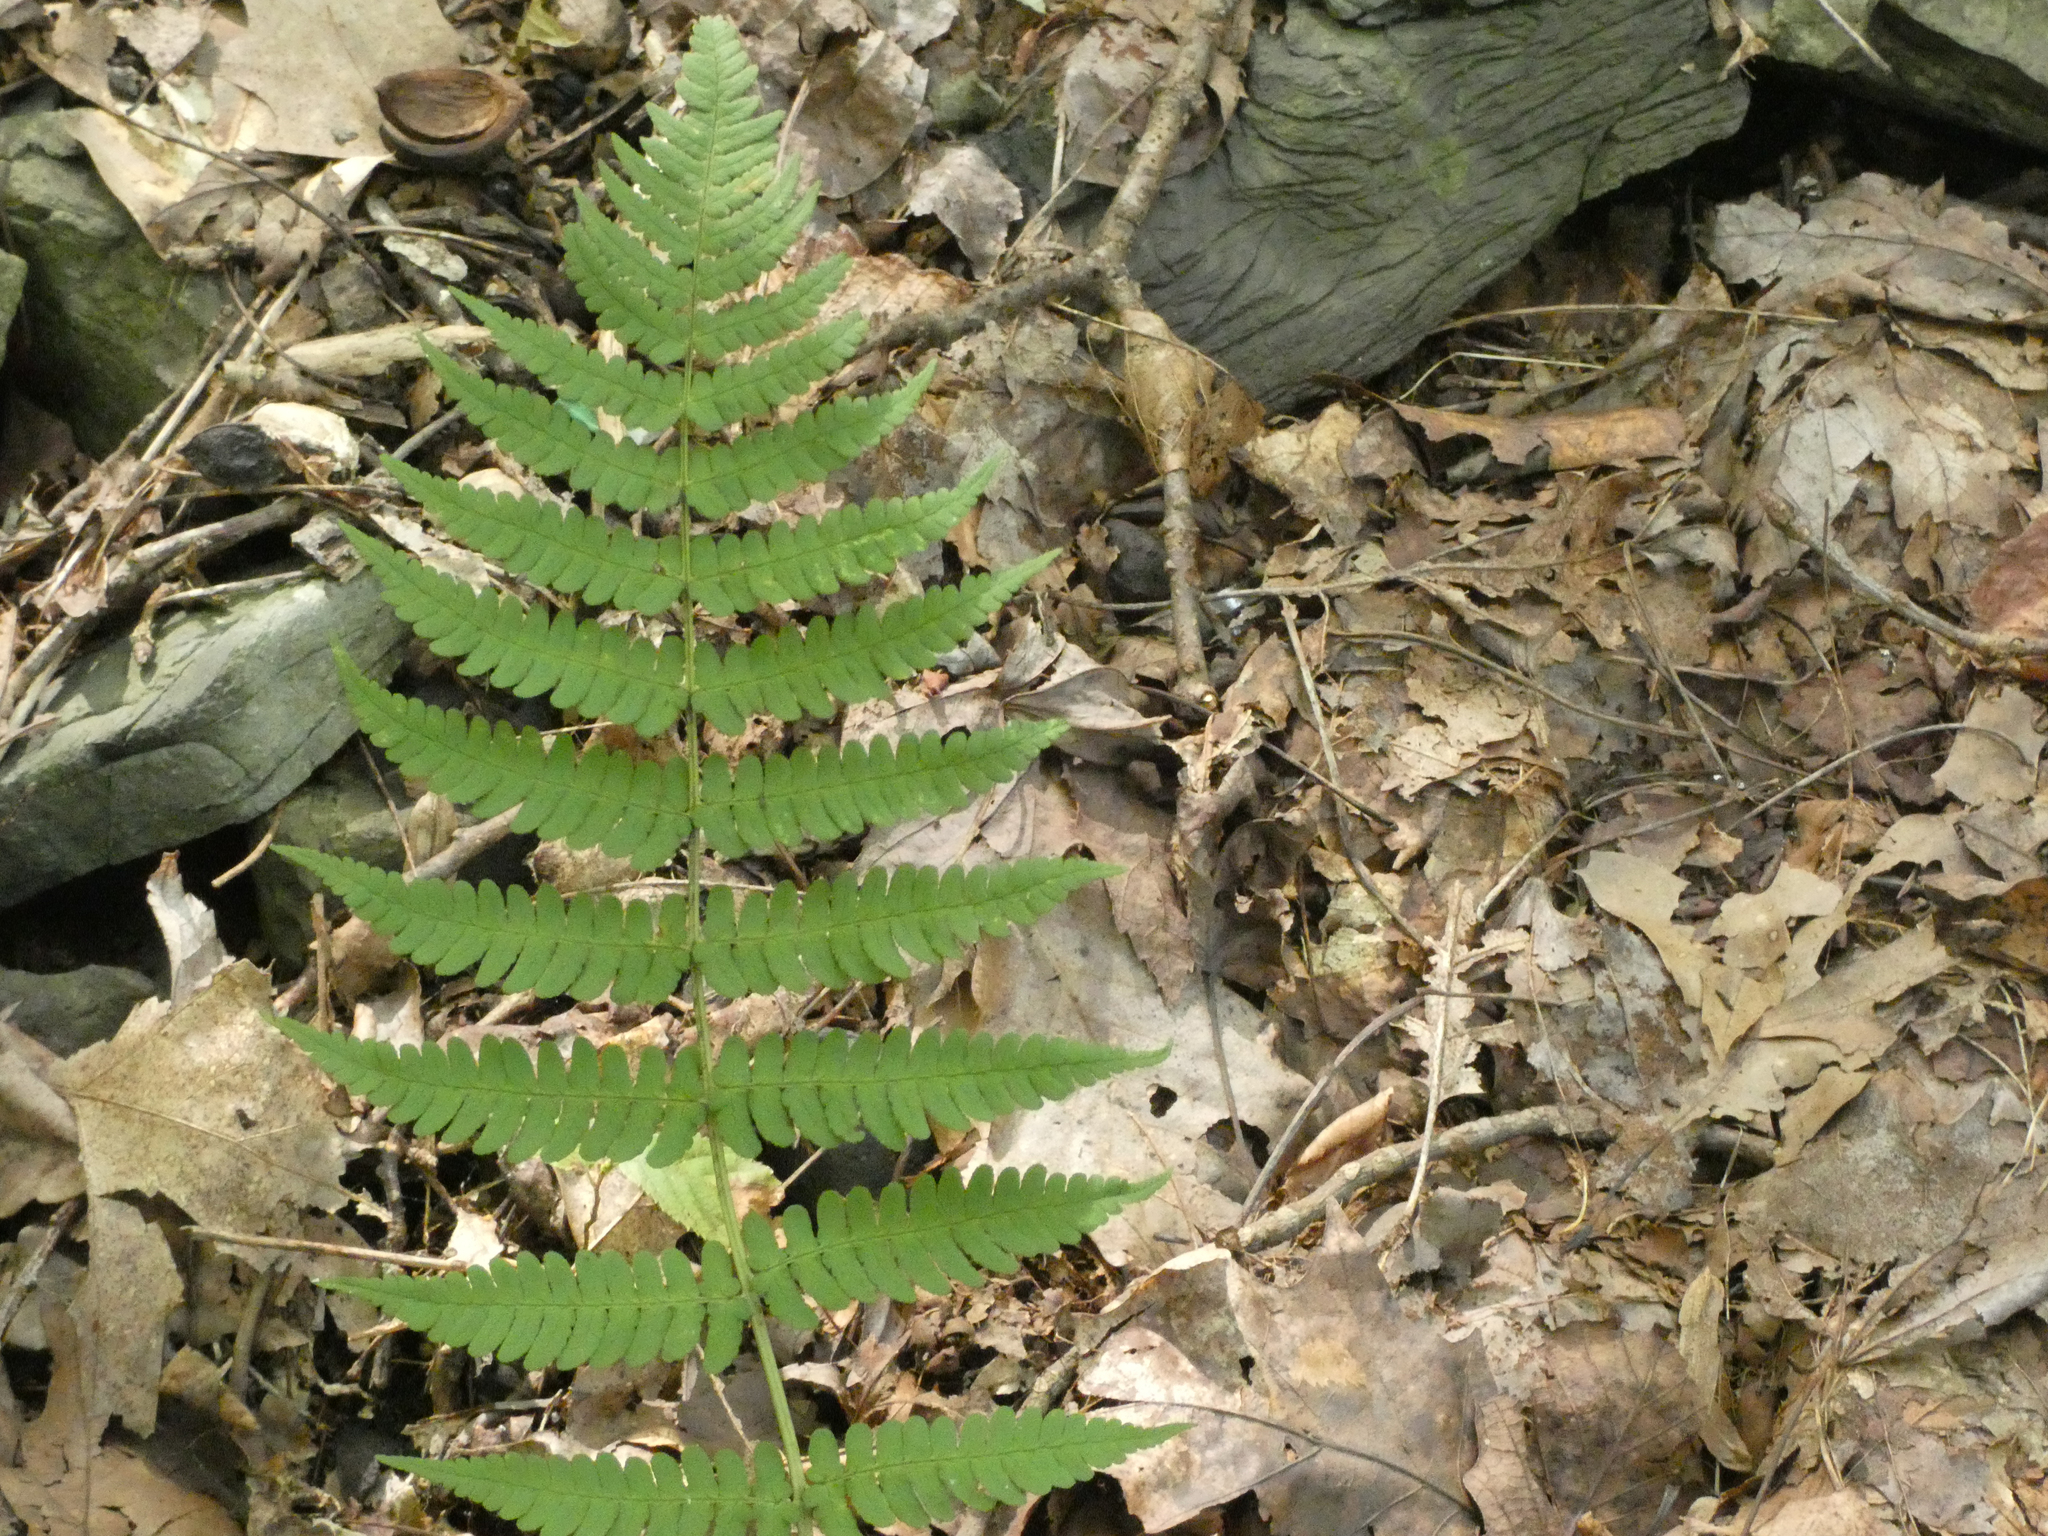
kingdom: Plantae
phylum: Tracheophyta
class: Polypodiopsida
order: Polypodiales
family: Dryopteridaceae
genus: Dryopteris
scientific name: Dryopteris marginalis
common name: Marginal wood fern
